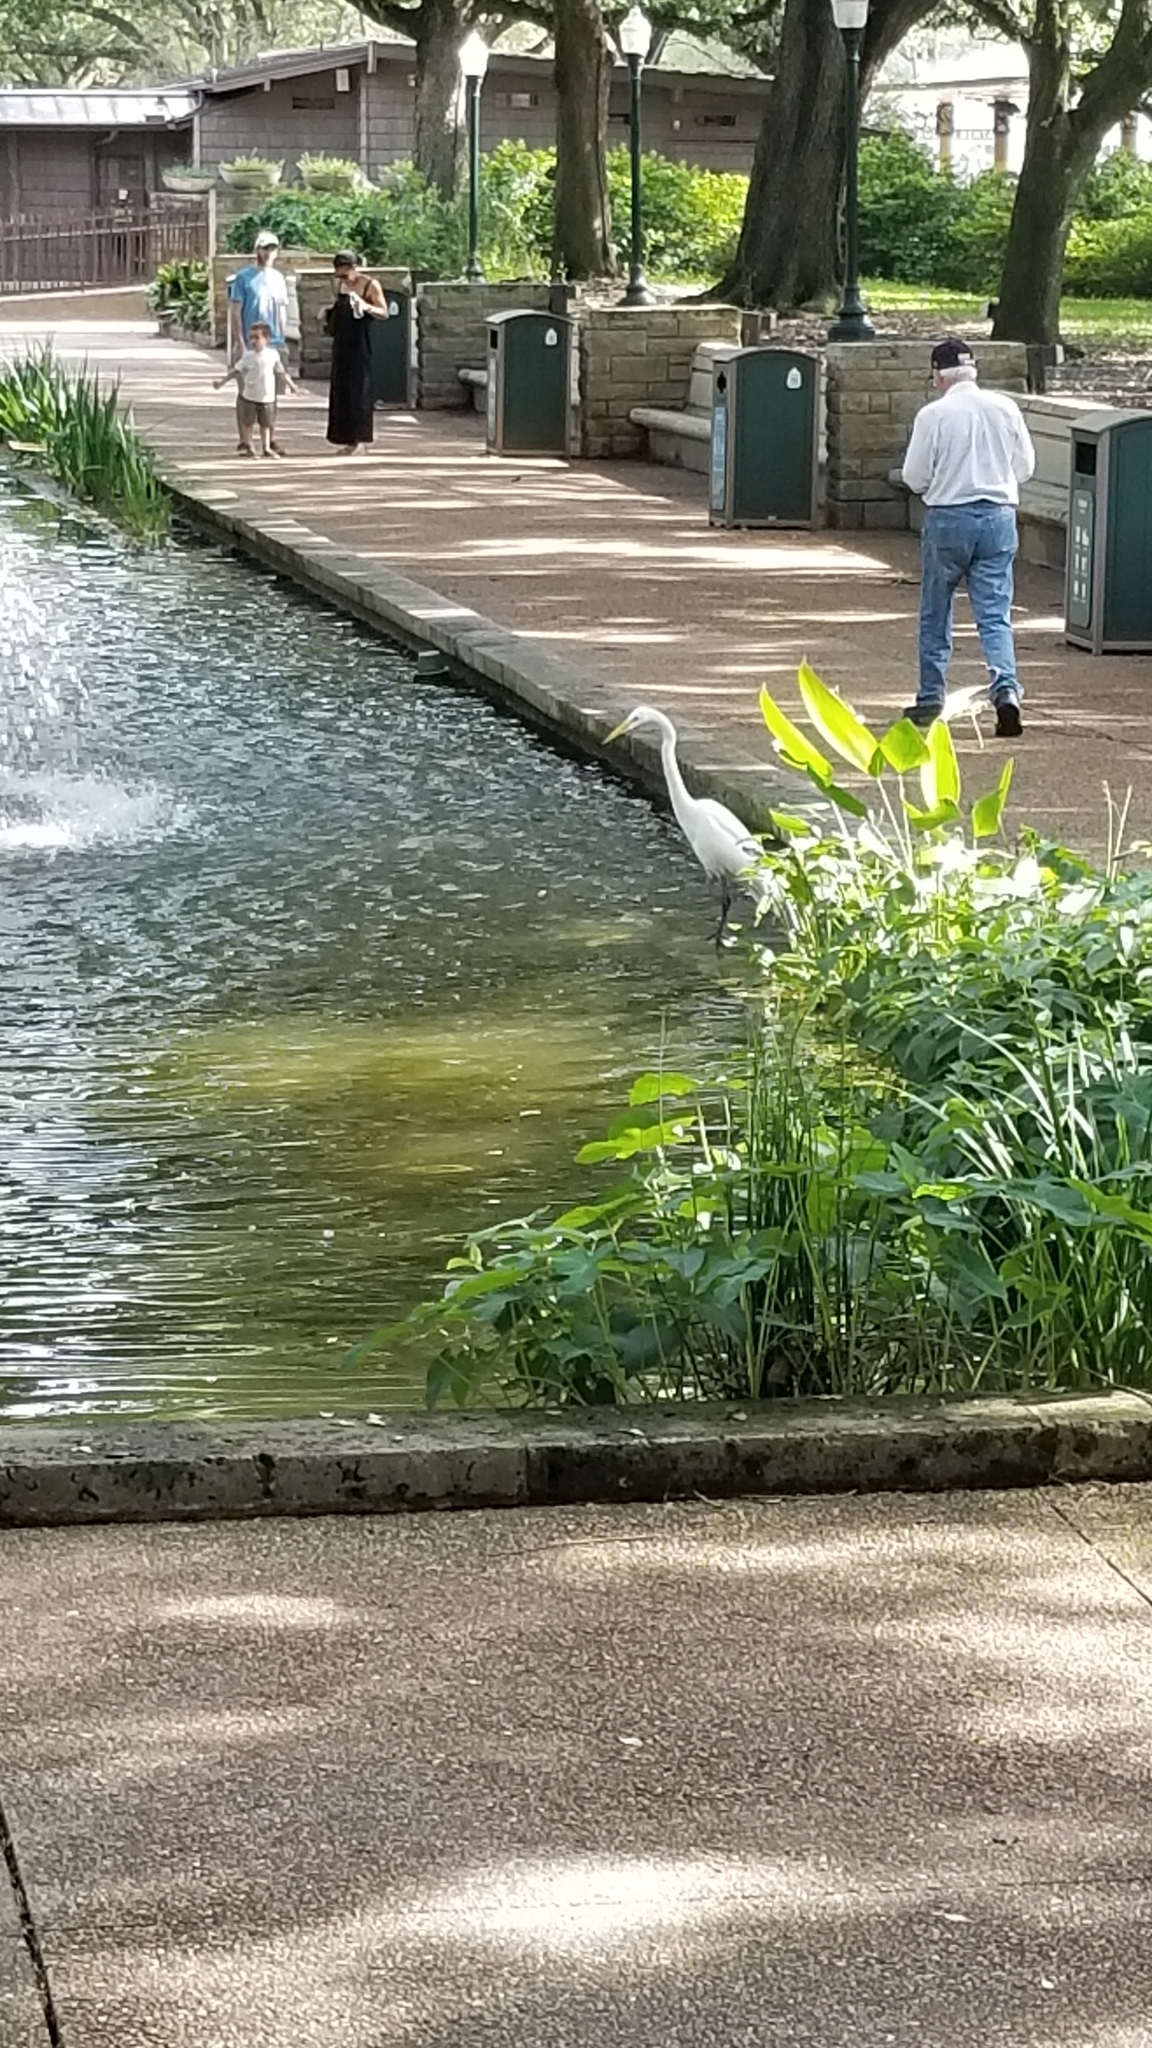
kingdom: Animalia
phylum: Chordata
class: Aves
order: Pelecaniformes
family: Ardeidae
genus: Ardea
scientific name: Ardea alba
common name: Great egret
